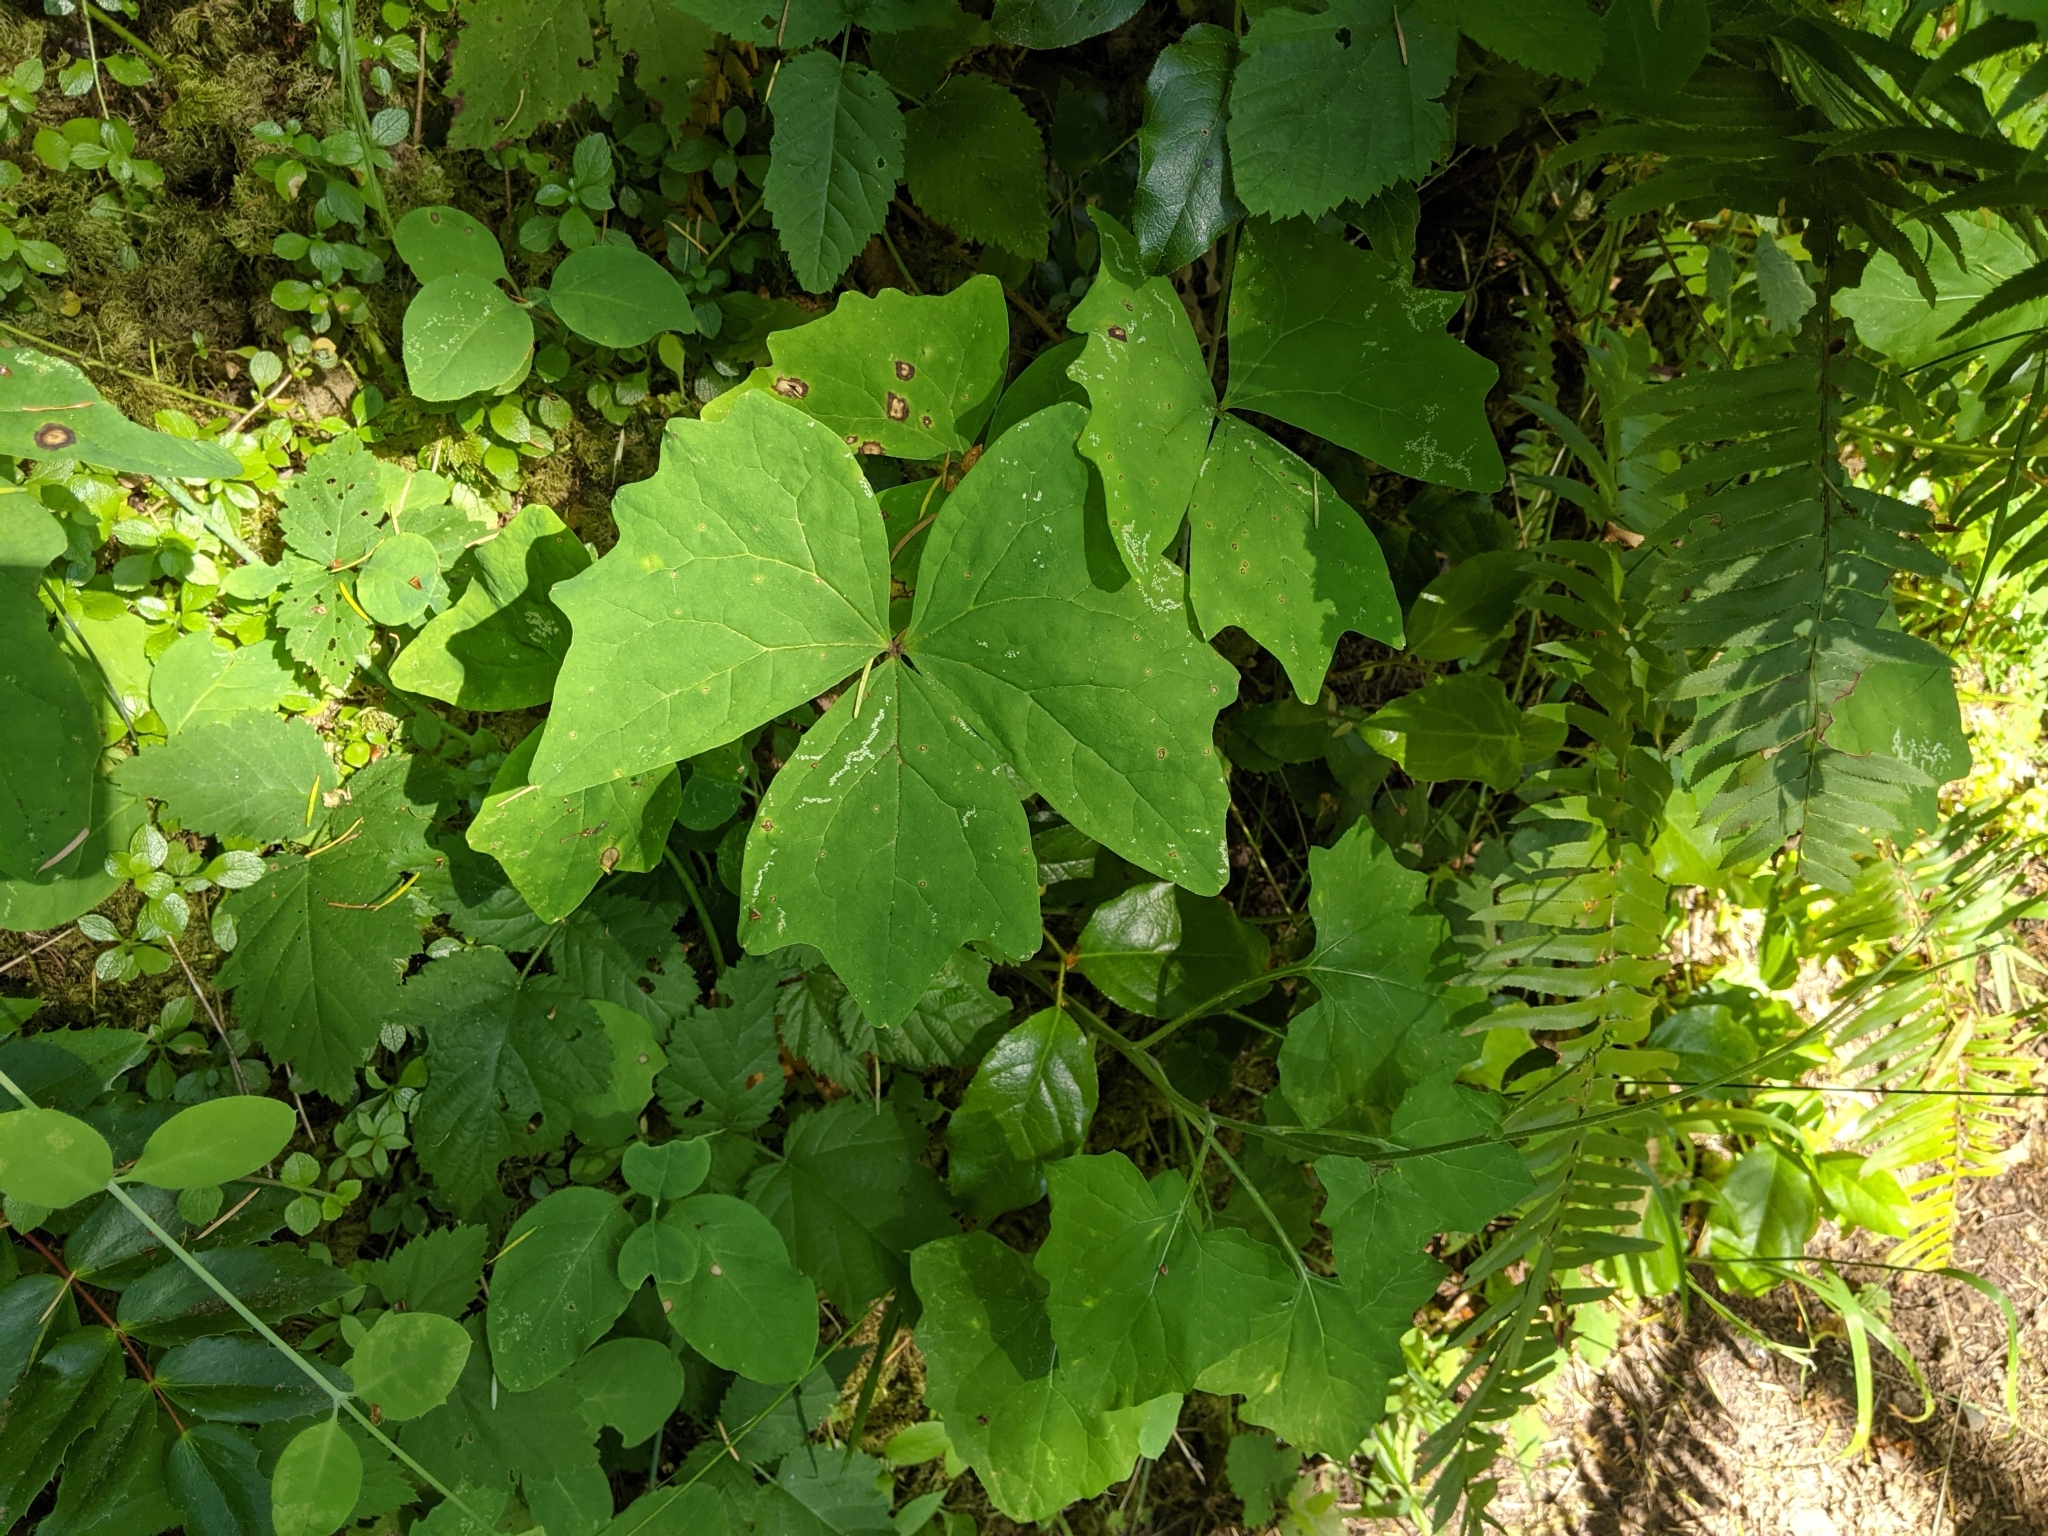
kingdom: Plantae
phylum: Tracheophyta
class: Magnoliopsida
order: Ranunculales
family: Berberidaceae
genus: Achlys
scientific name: Achlys triphylla
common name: Vanilla-leaf
